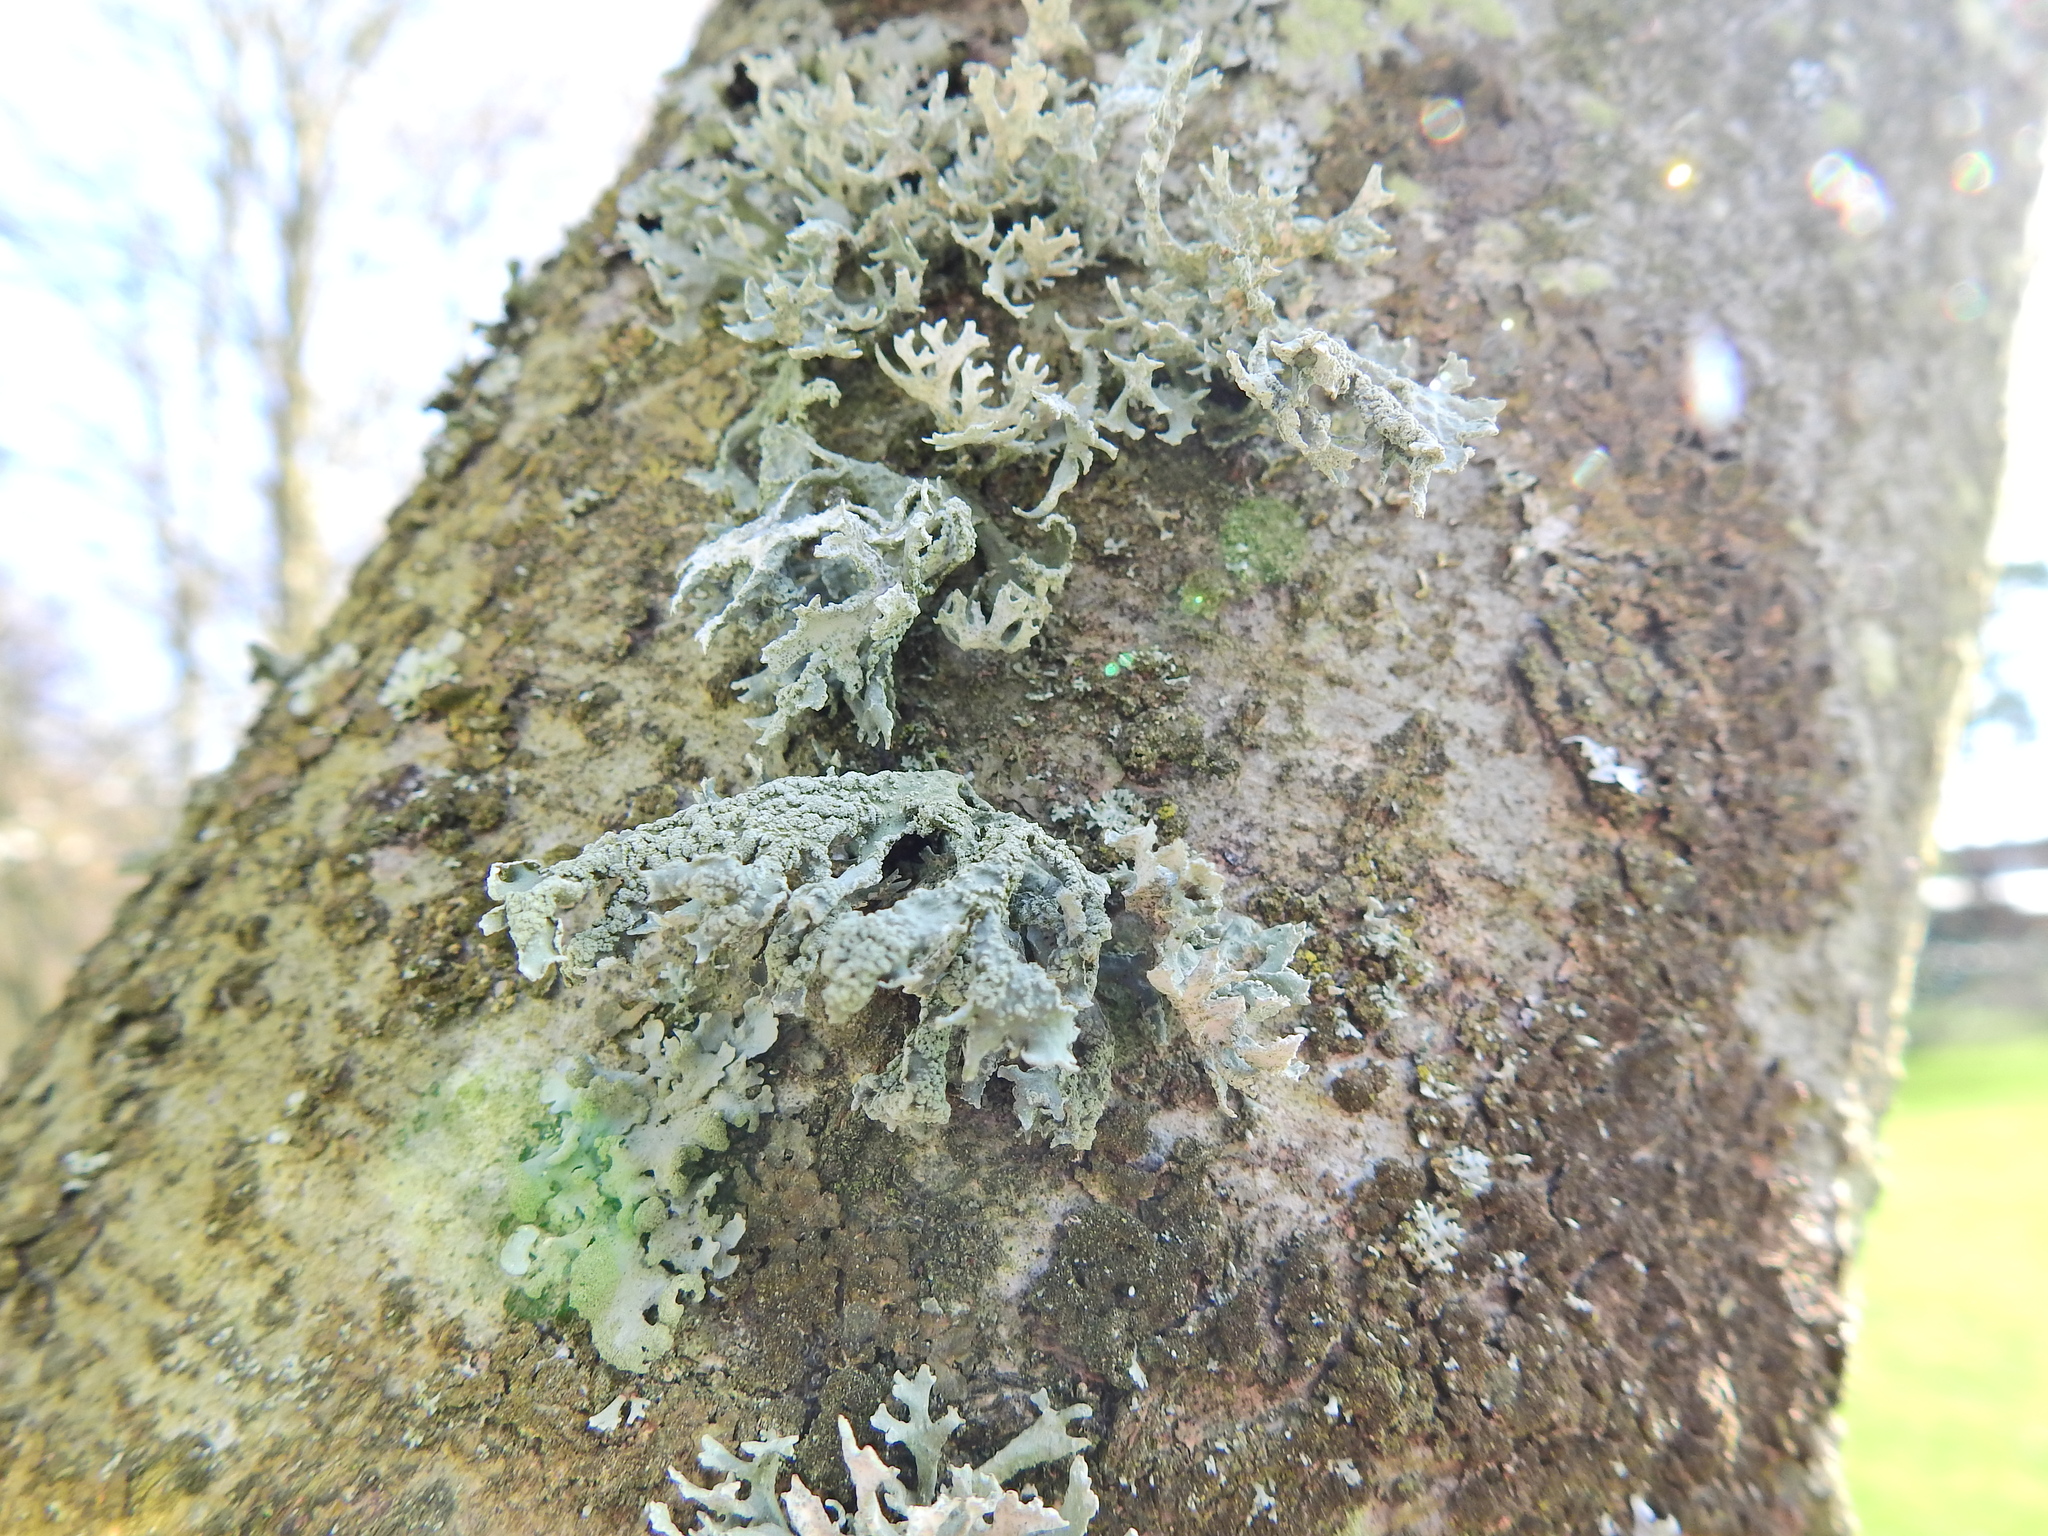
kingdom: Fungi
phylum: Ascomycota
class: Lecanoromycetes
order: Lecanorales
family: Parmeliaceae
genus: Evernia
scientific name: Evernia prunastri
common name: Oak moss
